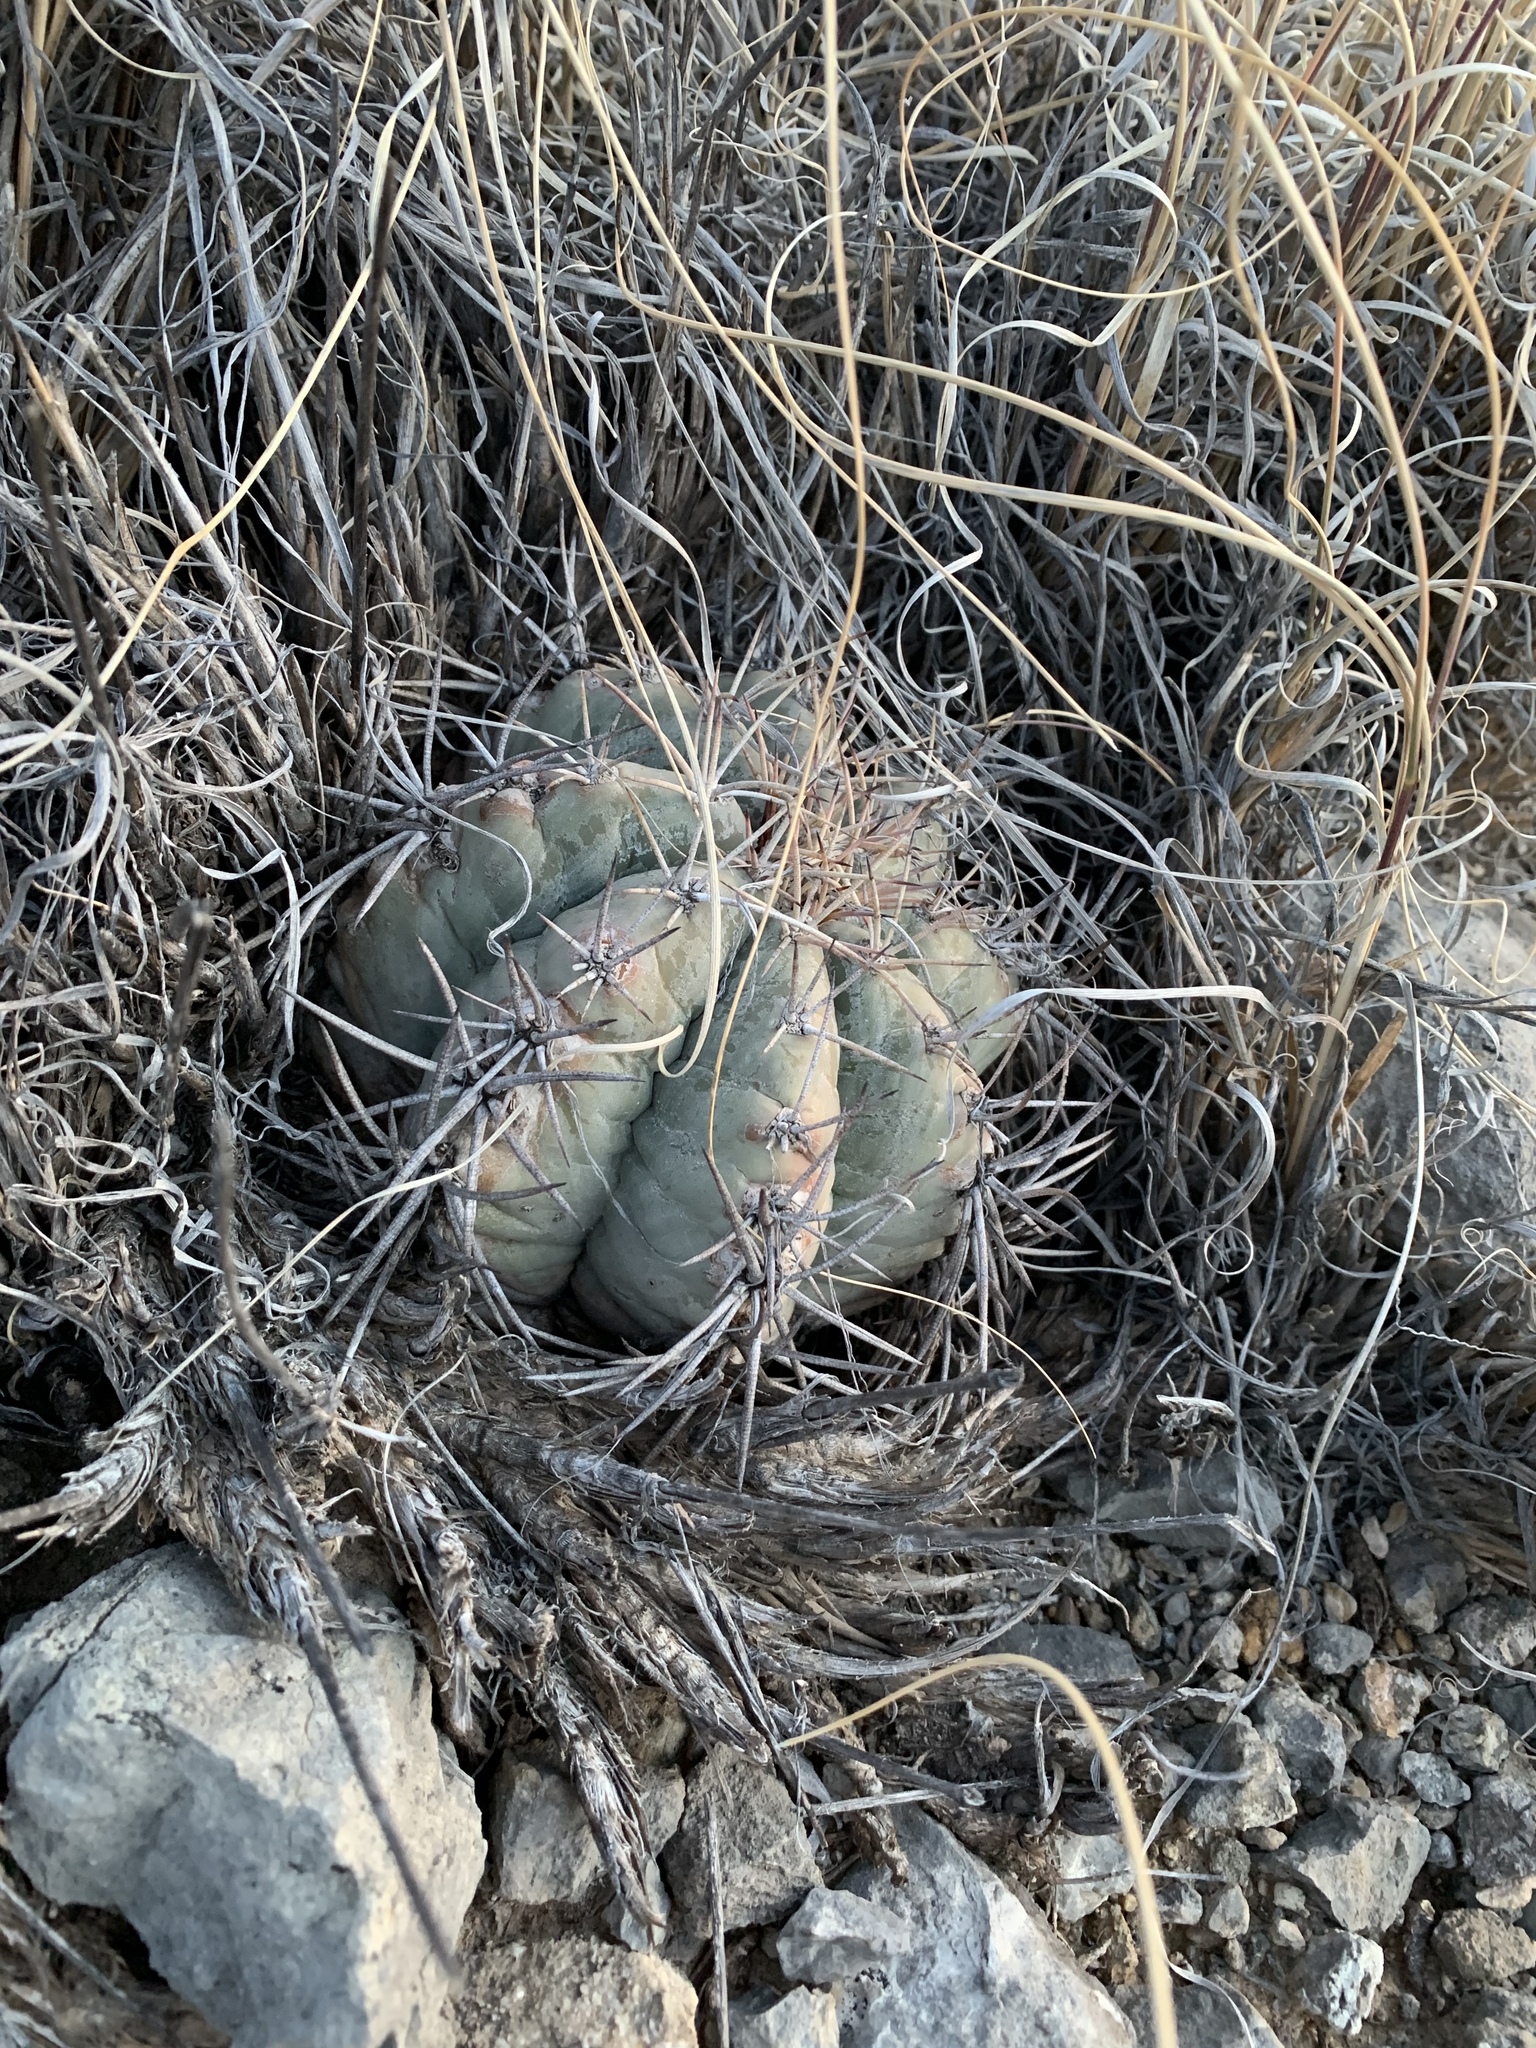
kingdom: Plantae
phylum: Tracheophyta
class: Magnoliopsida
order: Caryophyllales
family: Cactaceae
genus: Echinocactus
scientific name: Echinocactus horizonthalonius
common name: Devilshead
